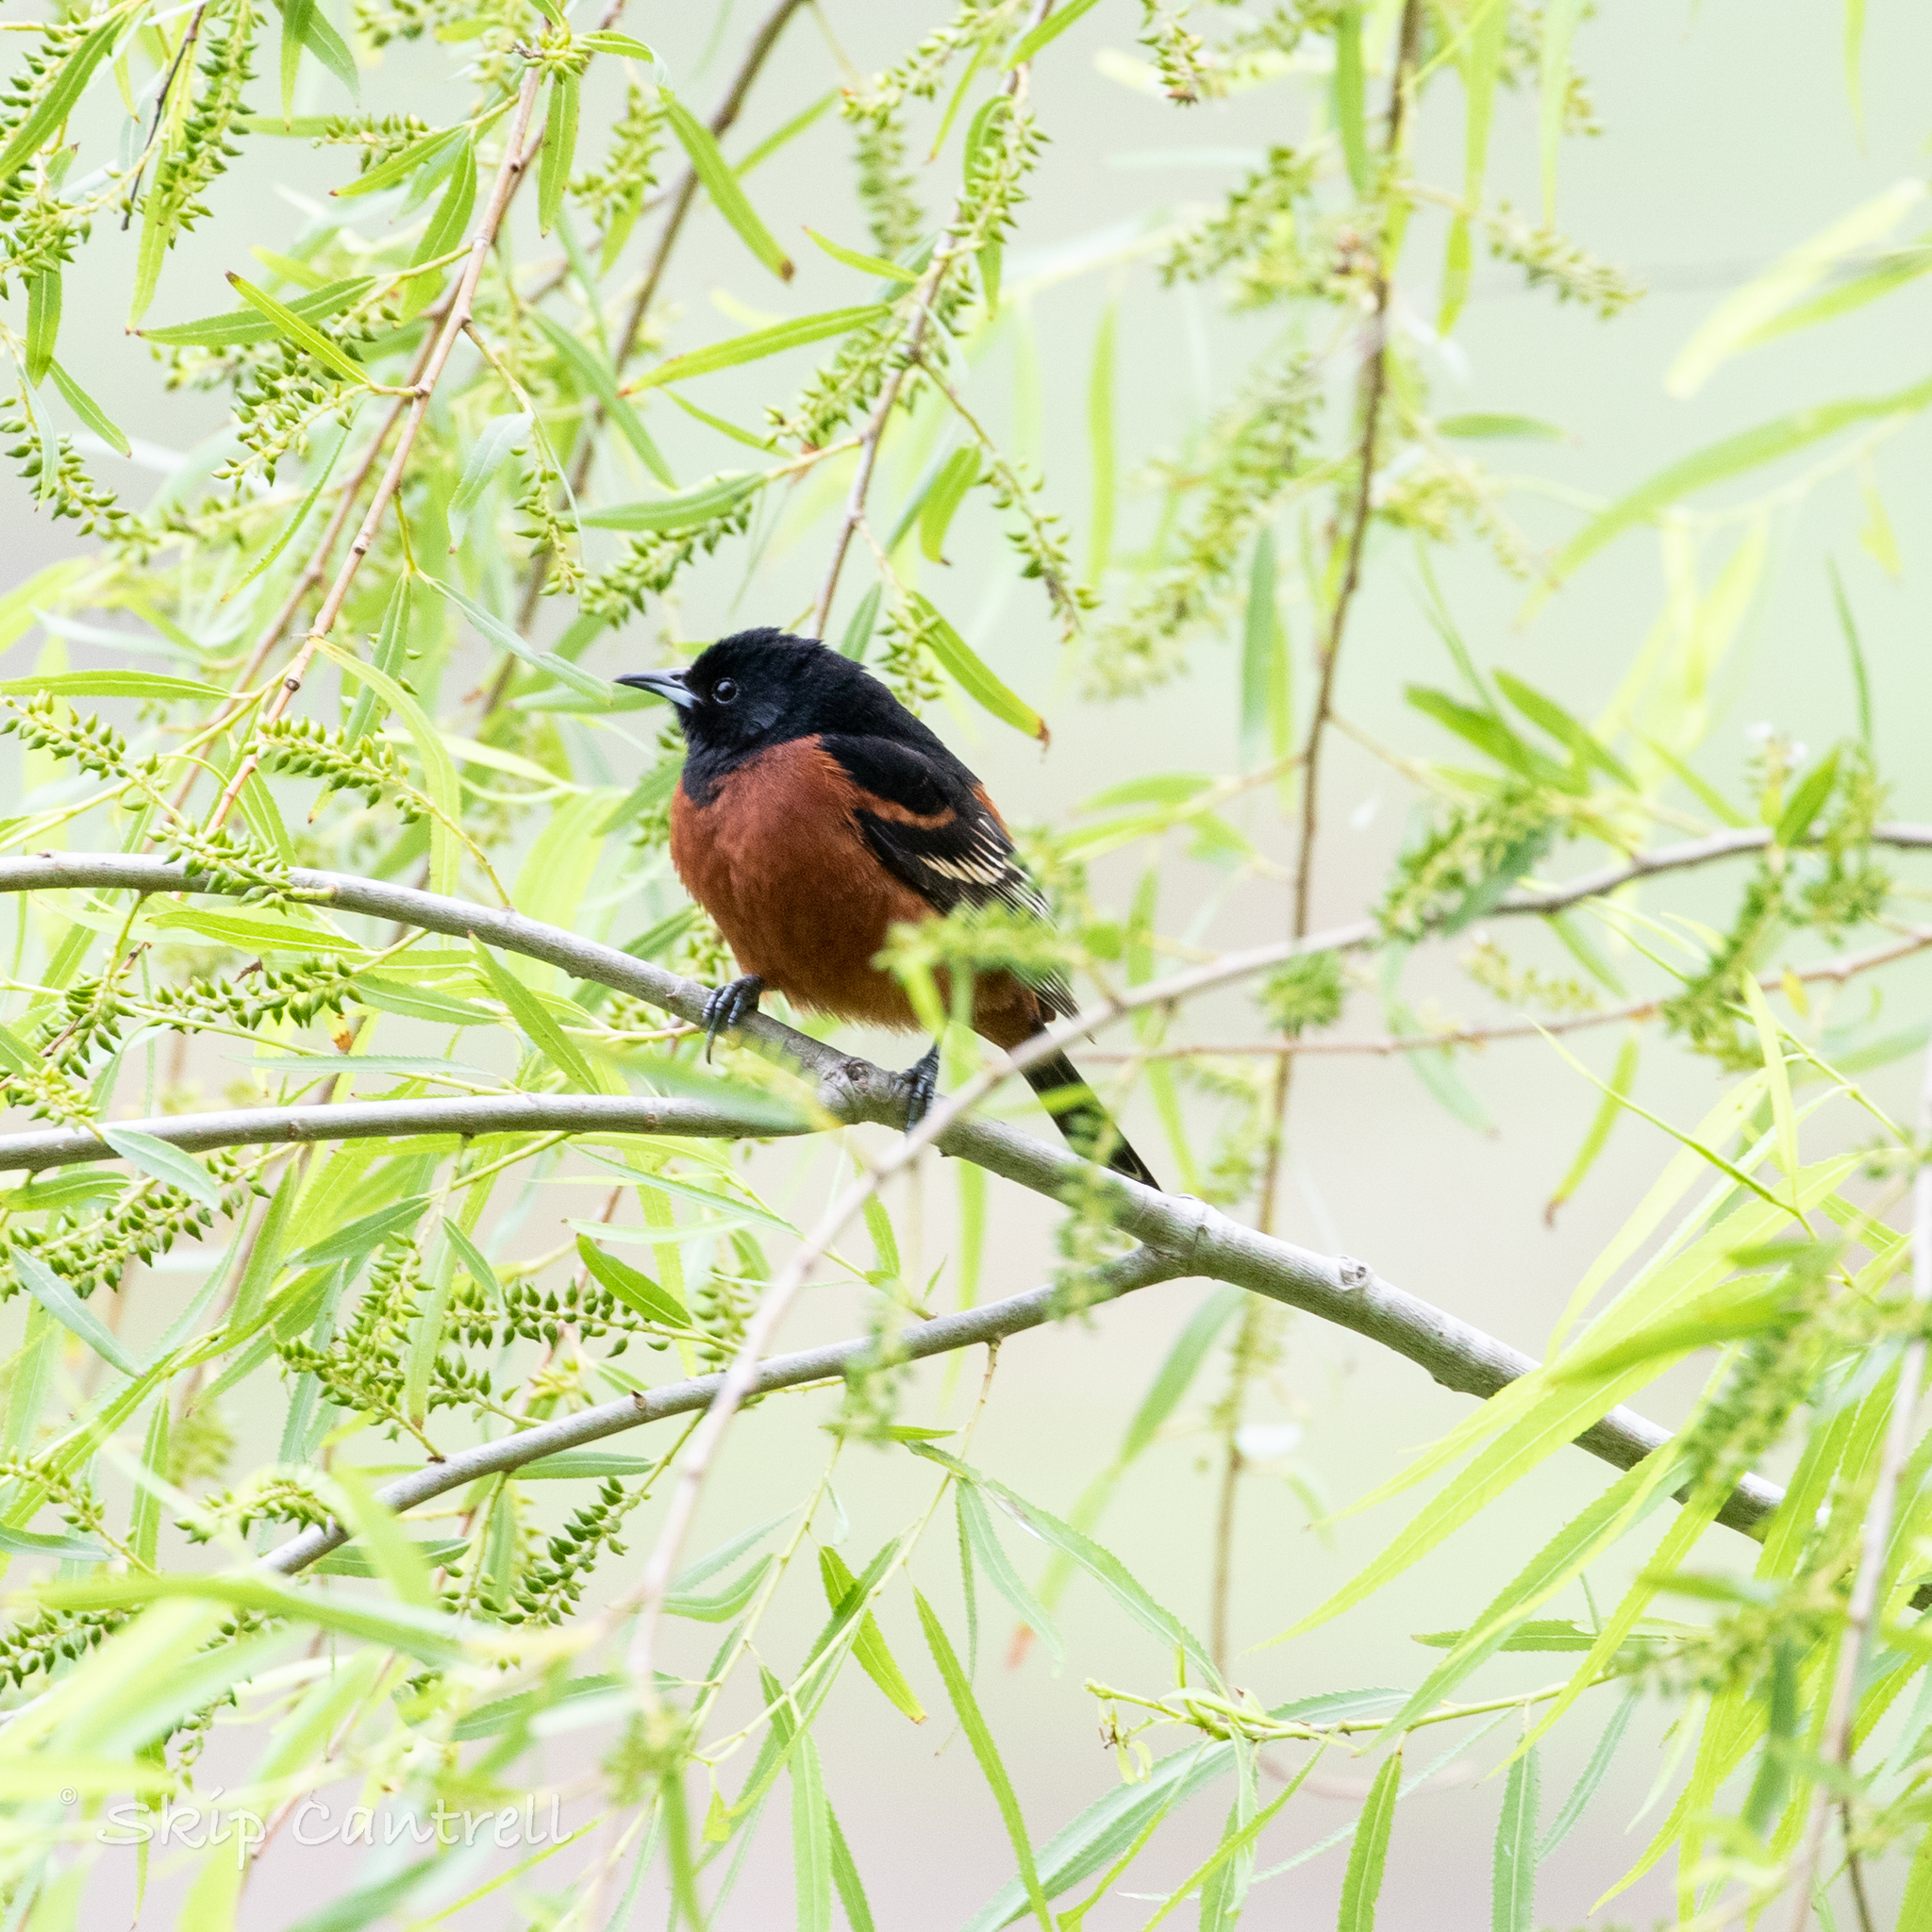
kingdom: Animalia
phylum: Chordata
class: Aves
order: Passeriformes
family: Icteridae
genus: Icterus
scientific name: Icterus spurius
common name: Orchard oriole
